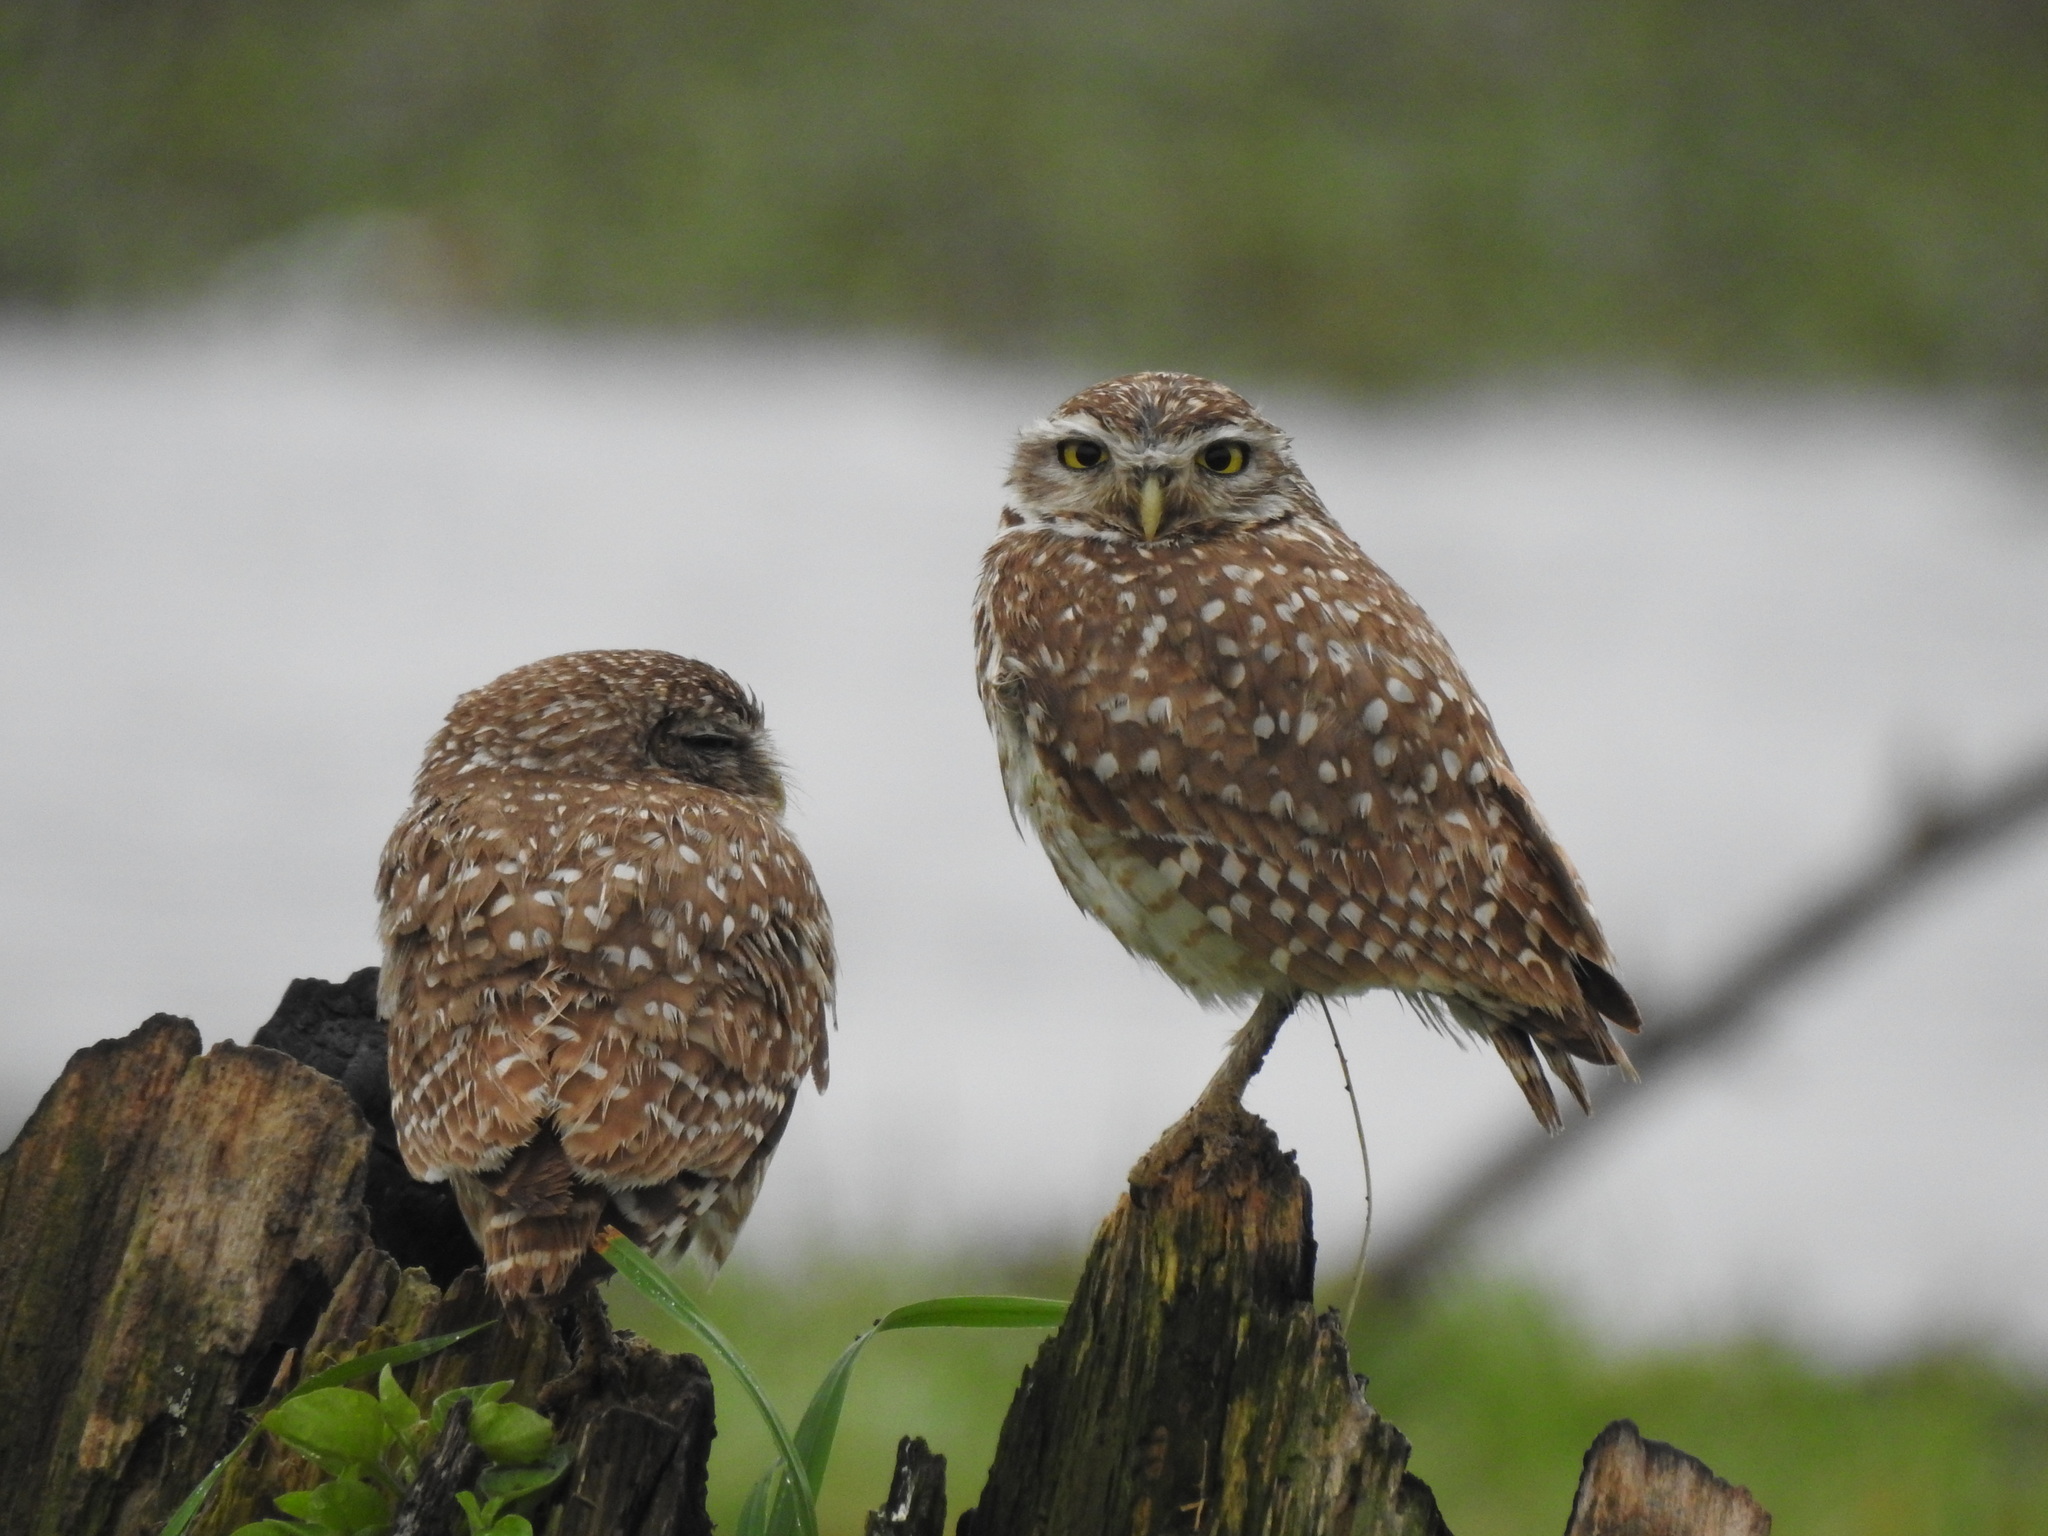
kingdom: Animalia
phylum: Chordata
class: Aves
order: Strigiformes
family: Strigidae
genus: Athene
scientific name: Athene cunicularia
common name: Burrowing owl
